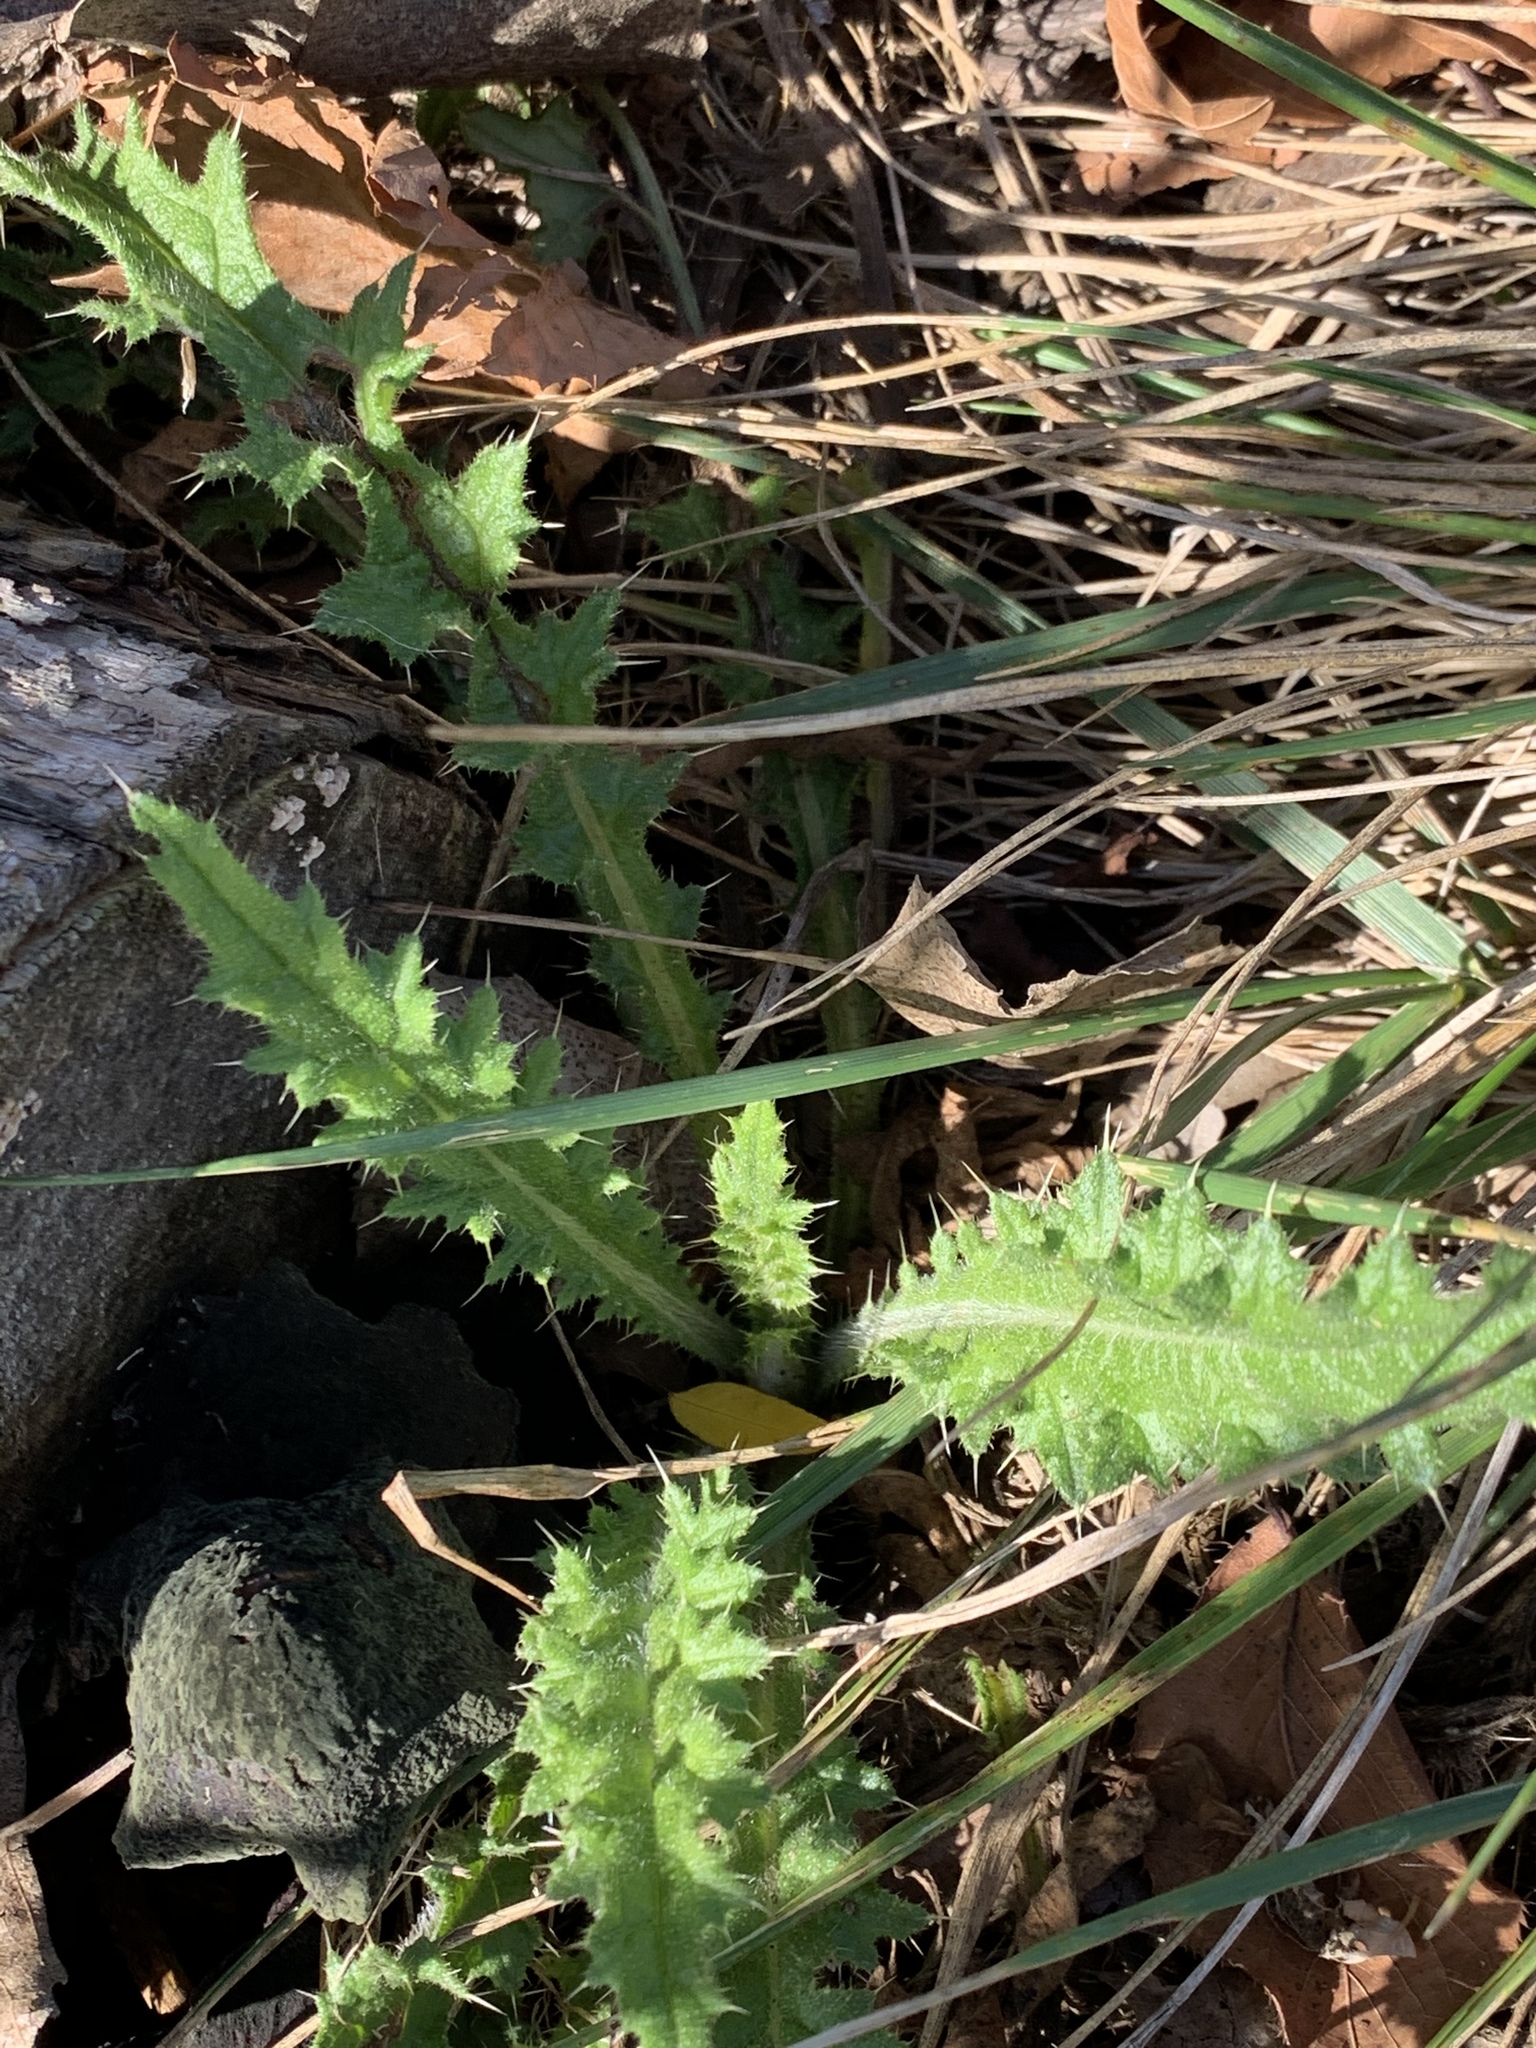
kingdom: Plantae
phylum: Tracheophyta
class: Magnoliopsida
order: Asterales
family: Asteraceae
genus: Cirsium
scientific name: Cirsium vulgare
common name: Bull thistle
